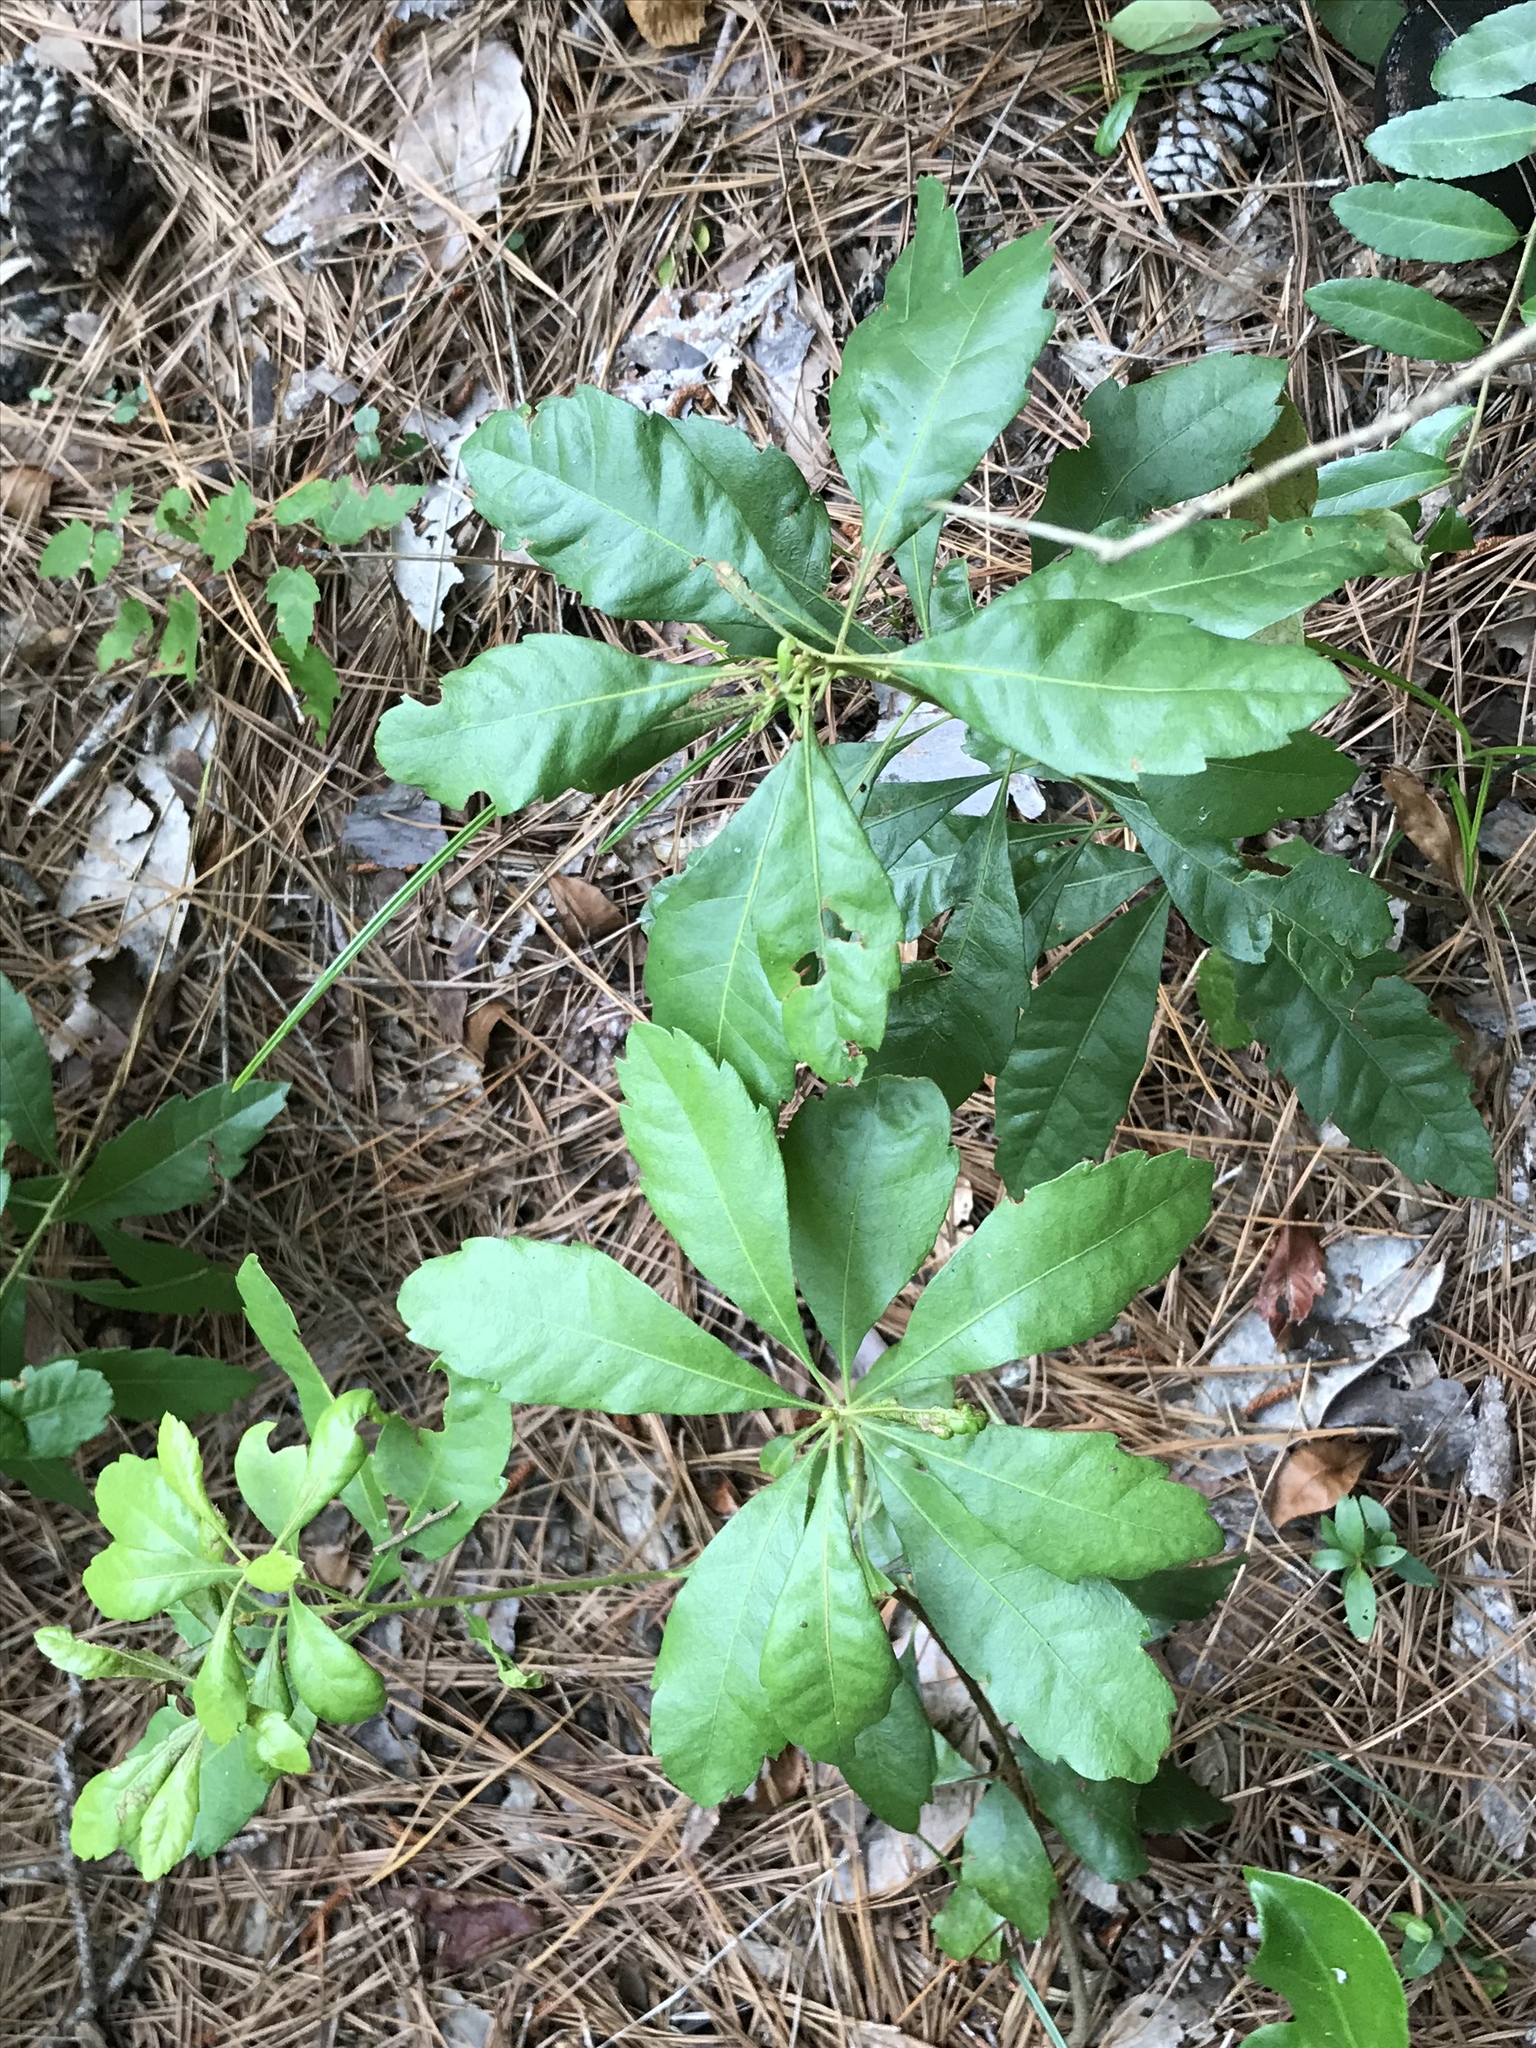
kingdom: Plantae
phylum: Tracheophyta
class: Magnoliopsida
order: Fagales
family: Myricaceae
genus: Morella
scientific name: Morella caroliniensis
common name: Evergreen bayberry
